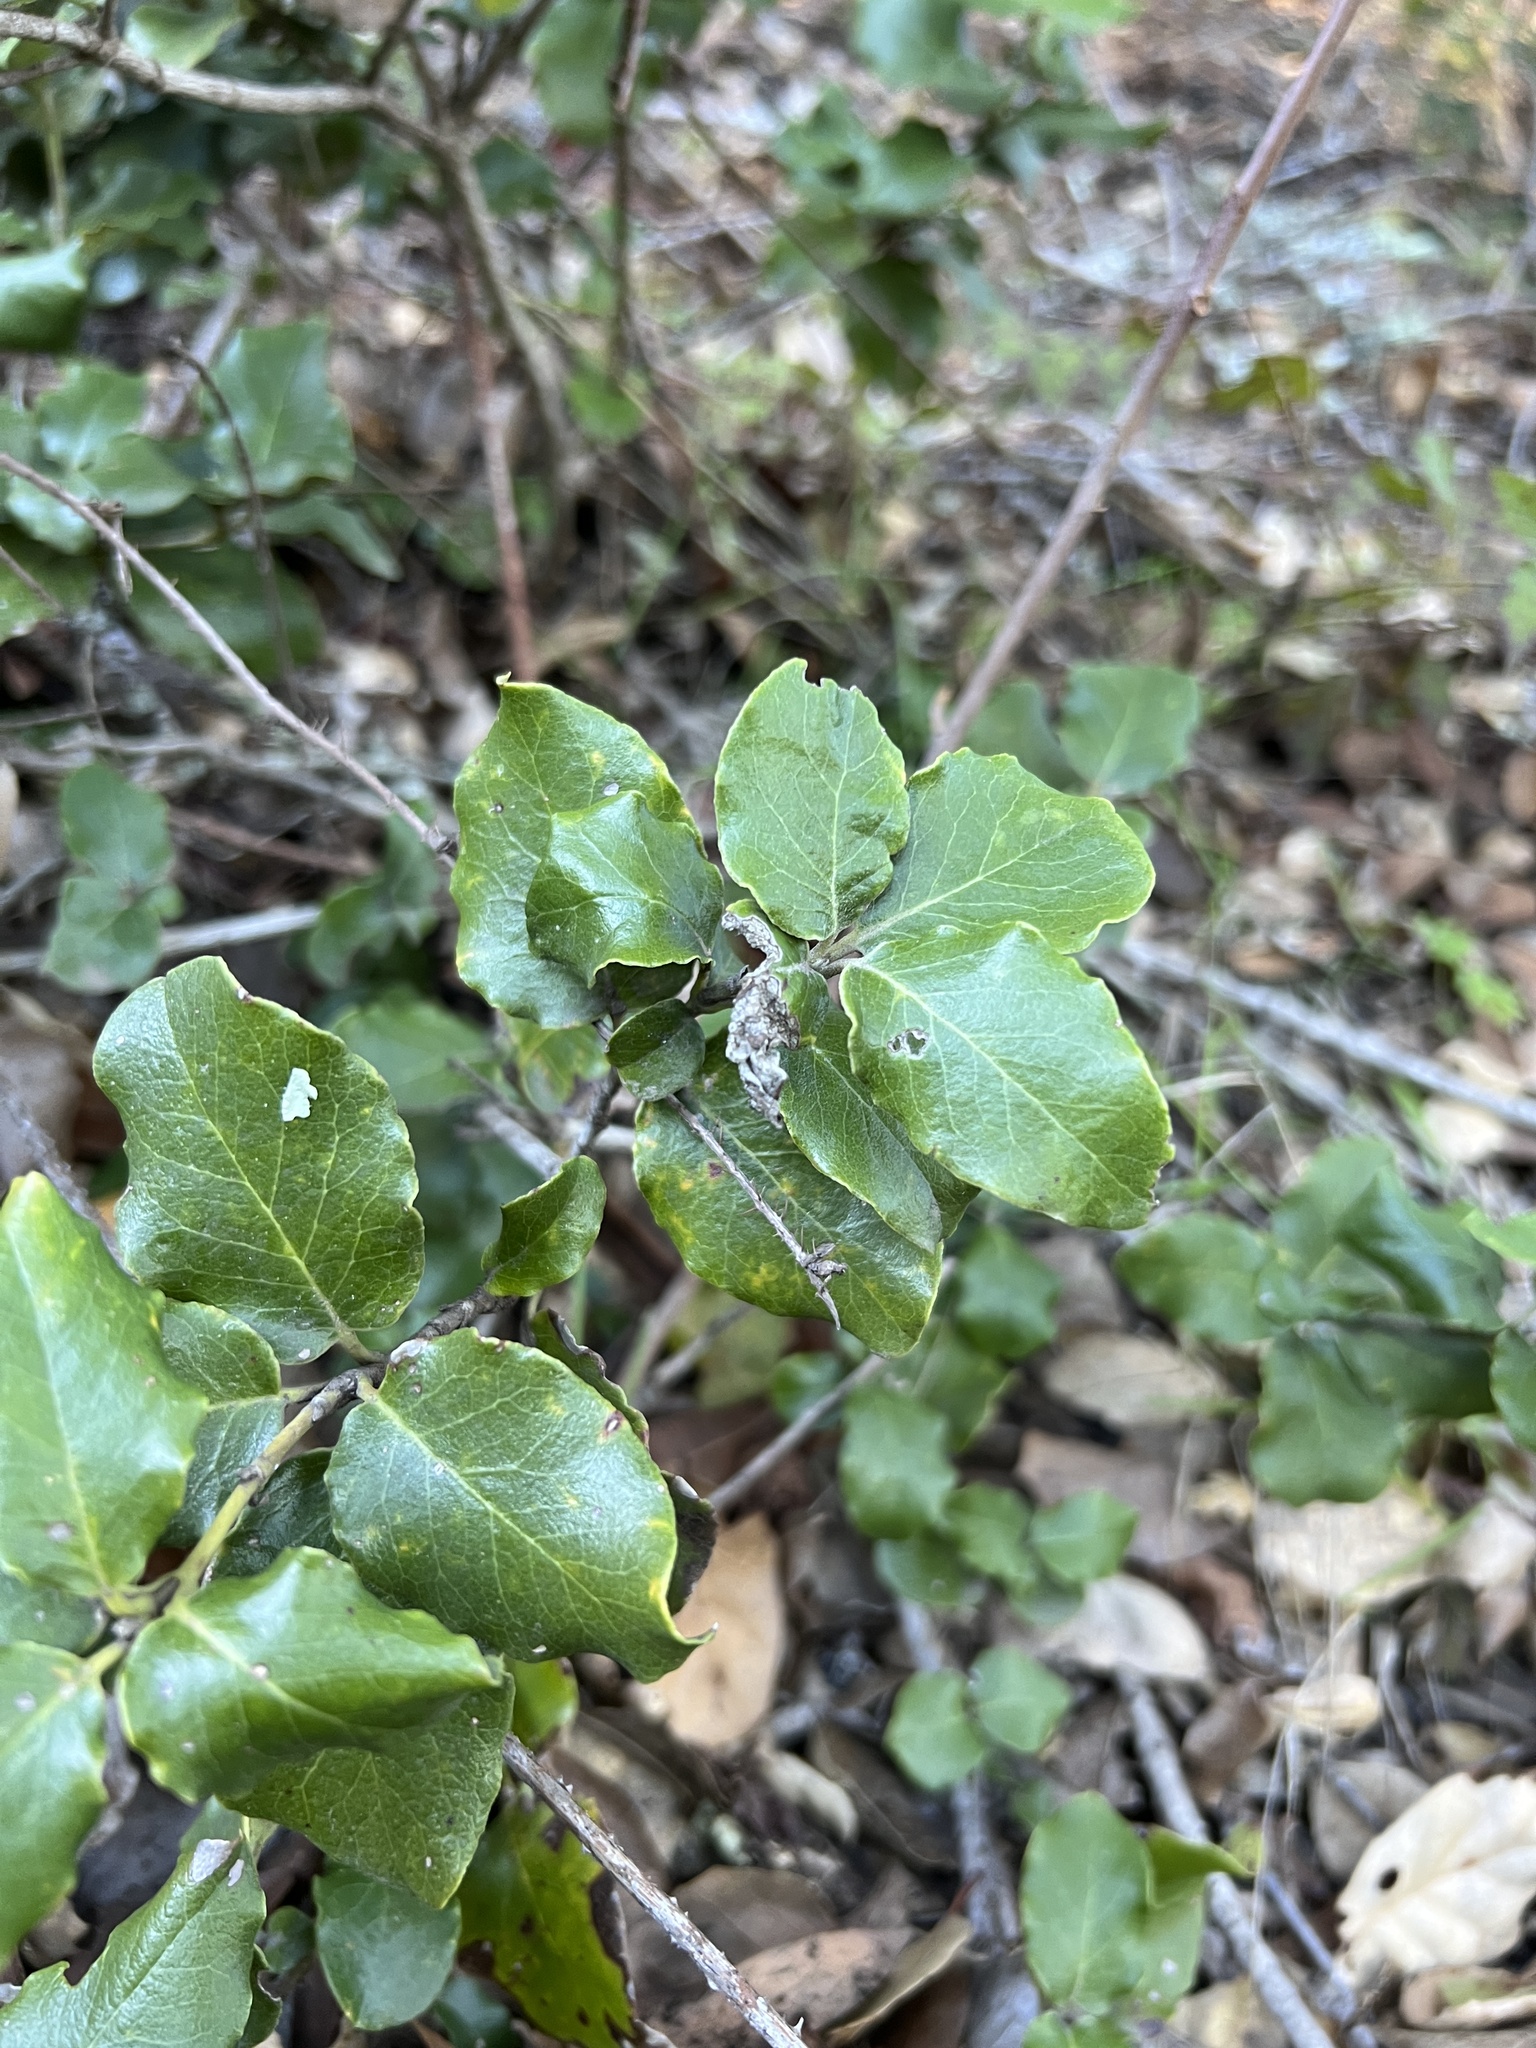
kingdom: Plantae
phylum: Tracheophyta
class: Magnoliopsida
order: Garryales
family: Garryaceae
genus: Garrya
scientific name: Garrya elliptica
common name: Silk-tassel
